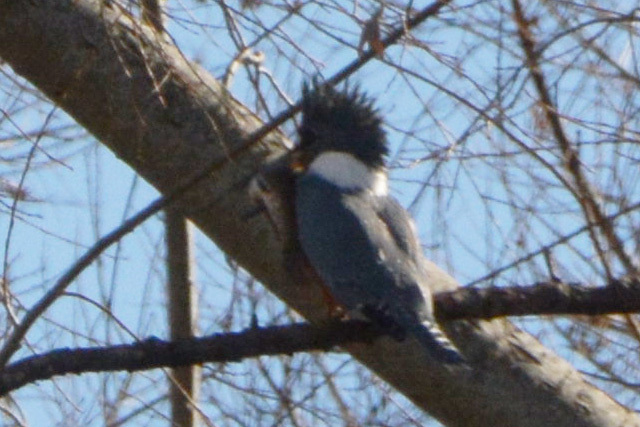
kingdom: Animalia
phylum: Chordata
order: Characiformes
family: Erythrinidae
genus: Hoplias
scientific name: Hoplias argentinensis
